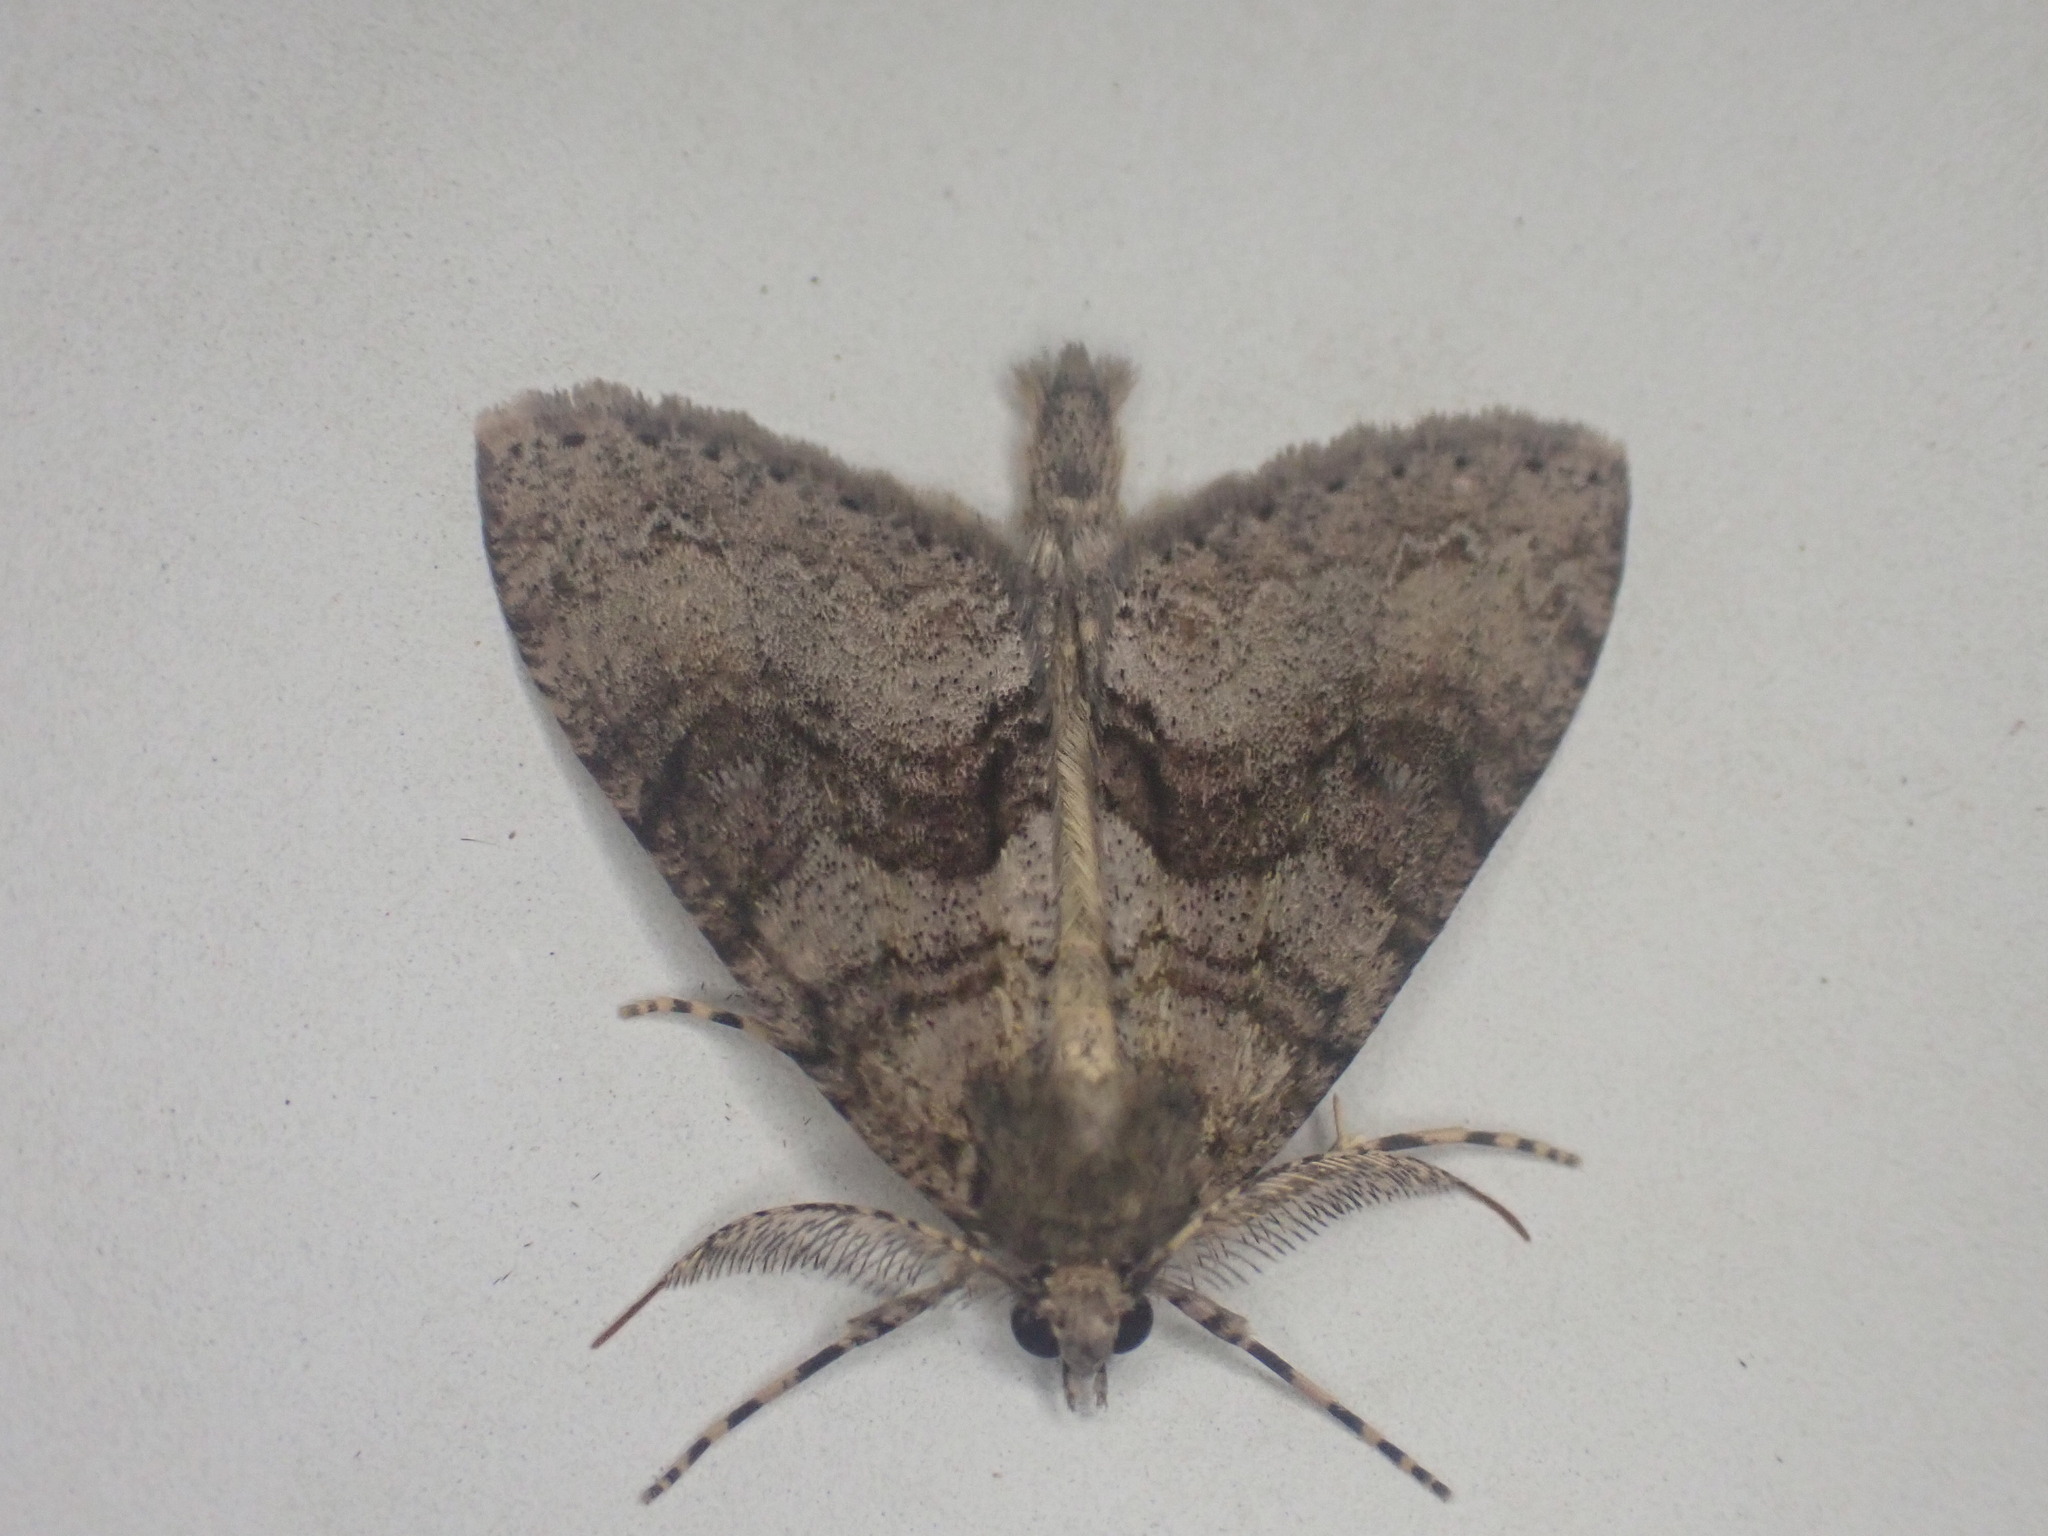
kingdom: Animalia
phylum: Arthropoda
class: Insecta
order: Lepidoptera
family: Geometridae
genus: Pseudocoremia
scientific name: Pseudocoremia suavis
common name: Common forest looper
